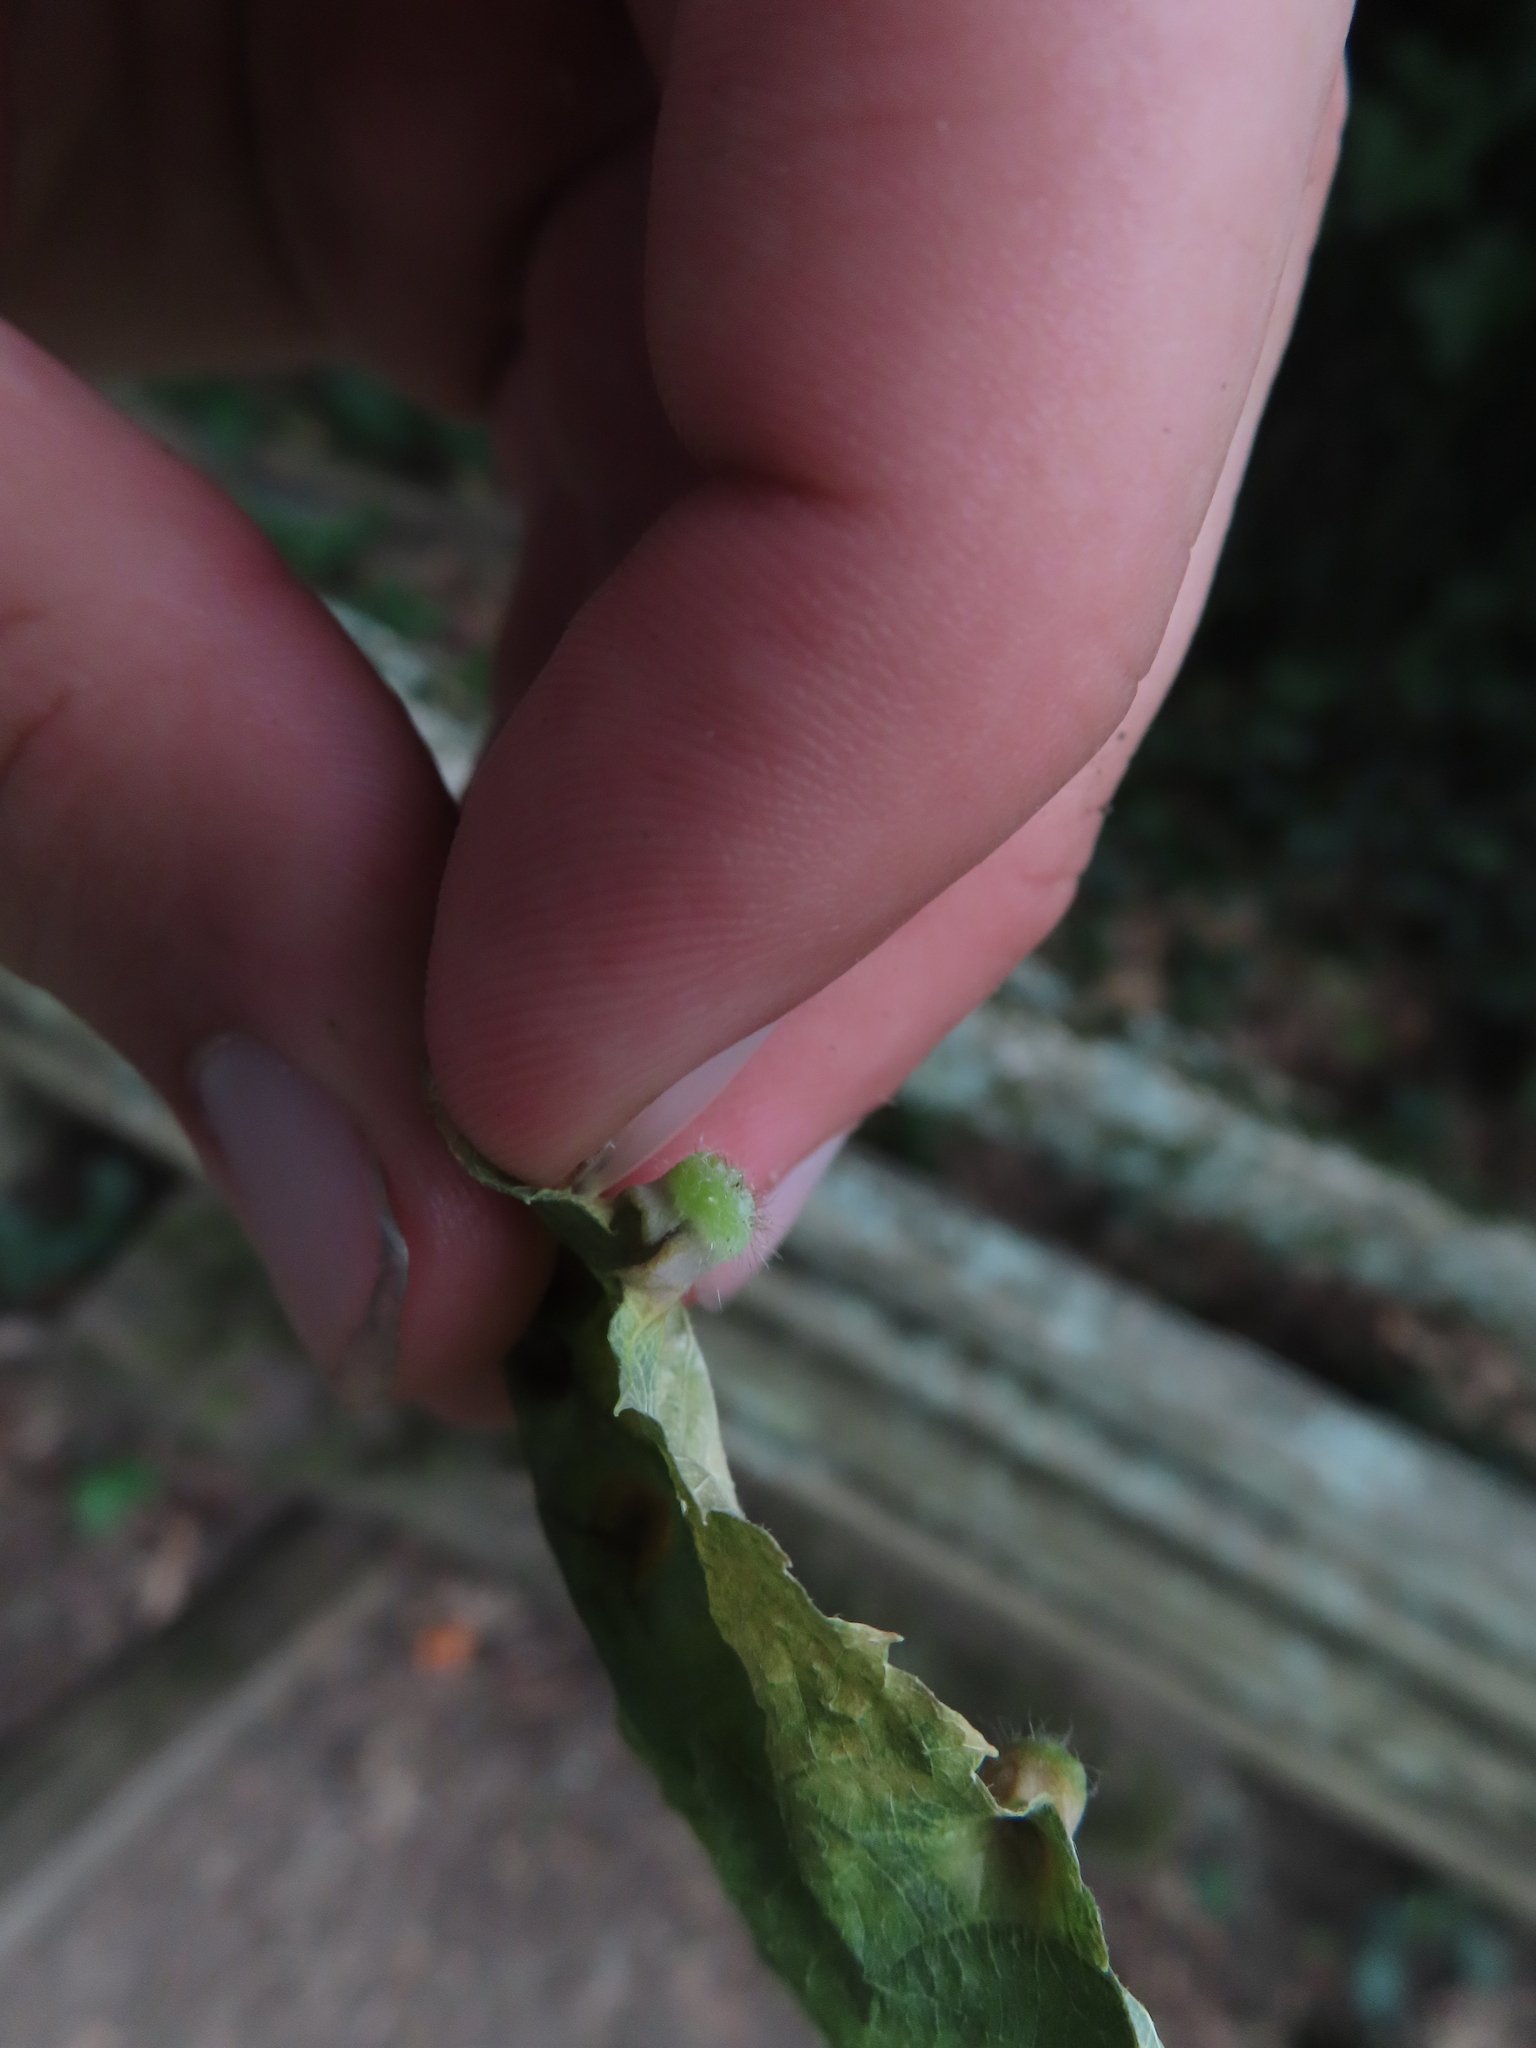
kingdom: Animalia
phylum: Arthropoda
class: Insecta
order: Hemiptera
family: Aphalaridae
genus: Pachypsylla
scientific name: Pachypsylla celtidismamma
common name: Hackberry nipplegall psyllid
